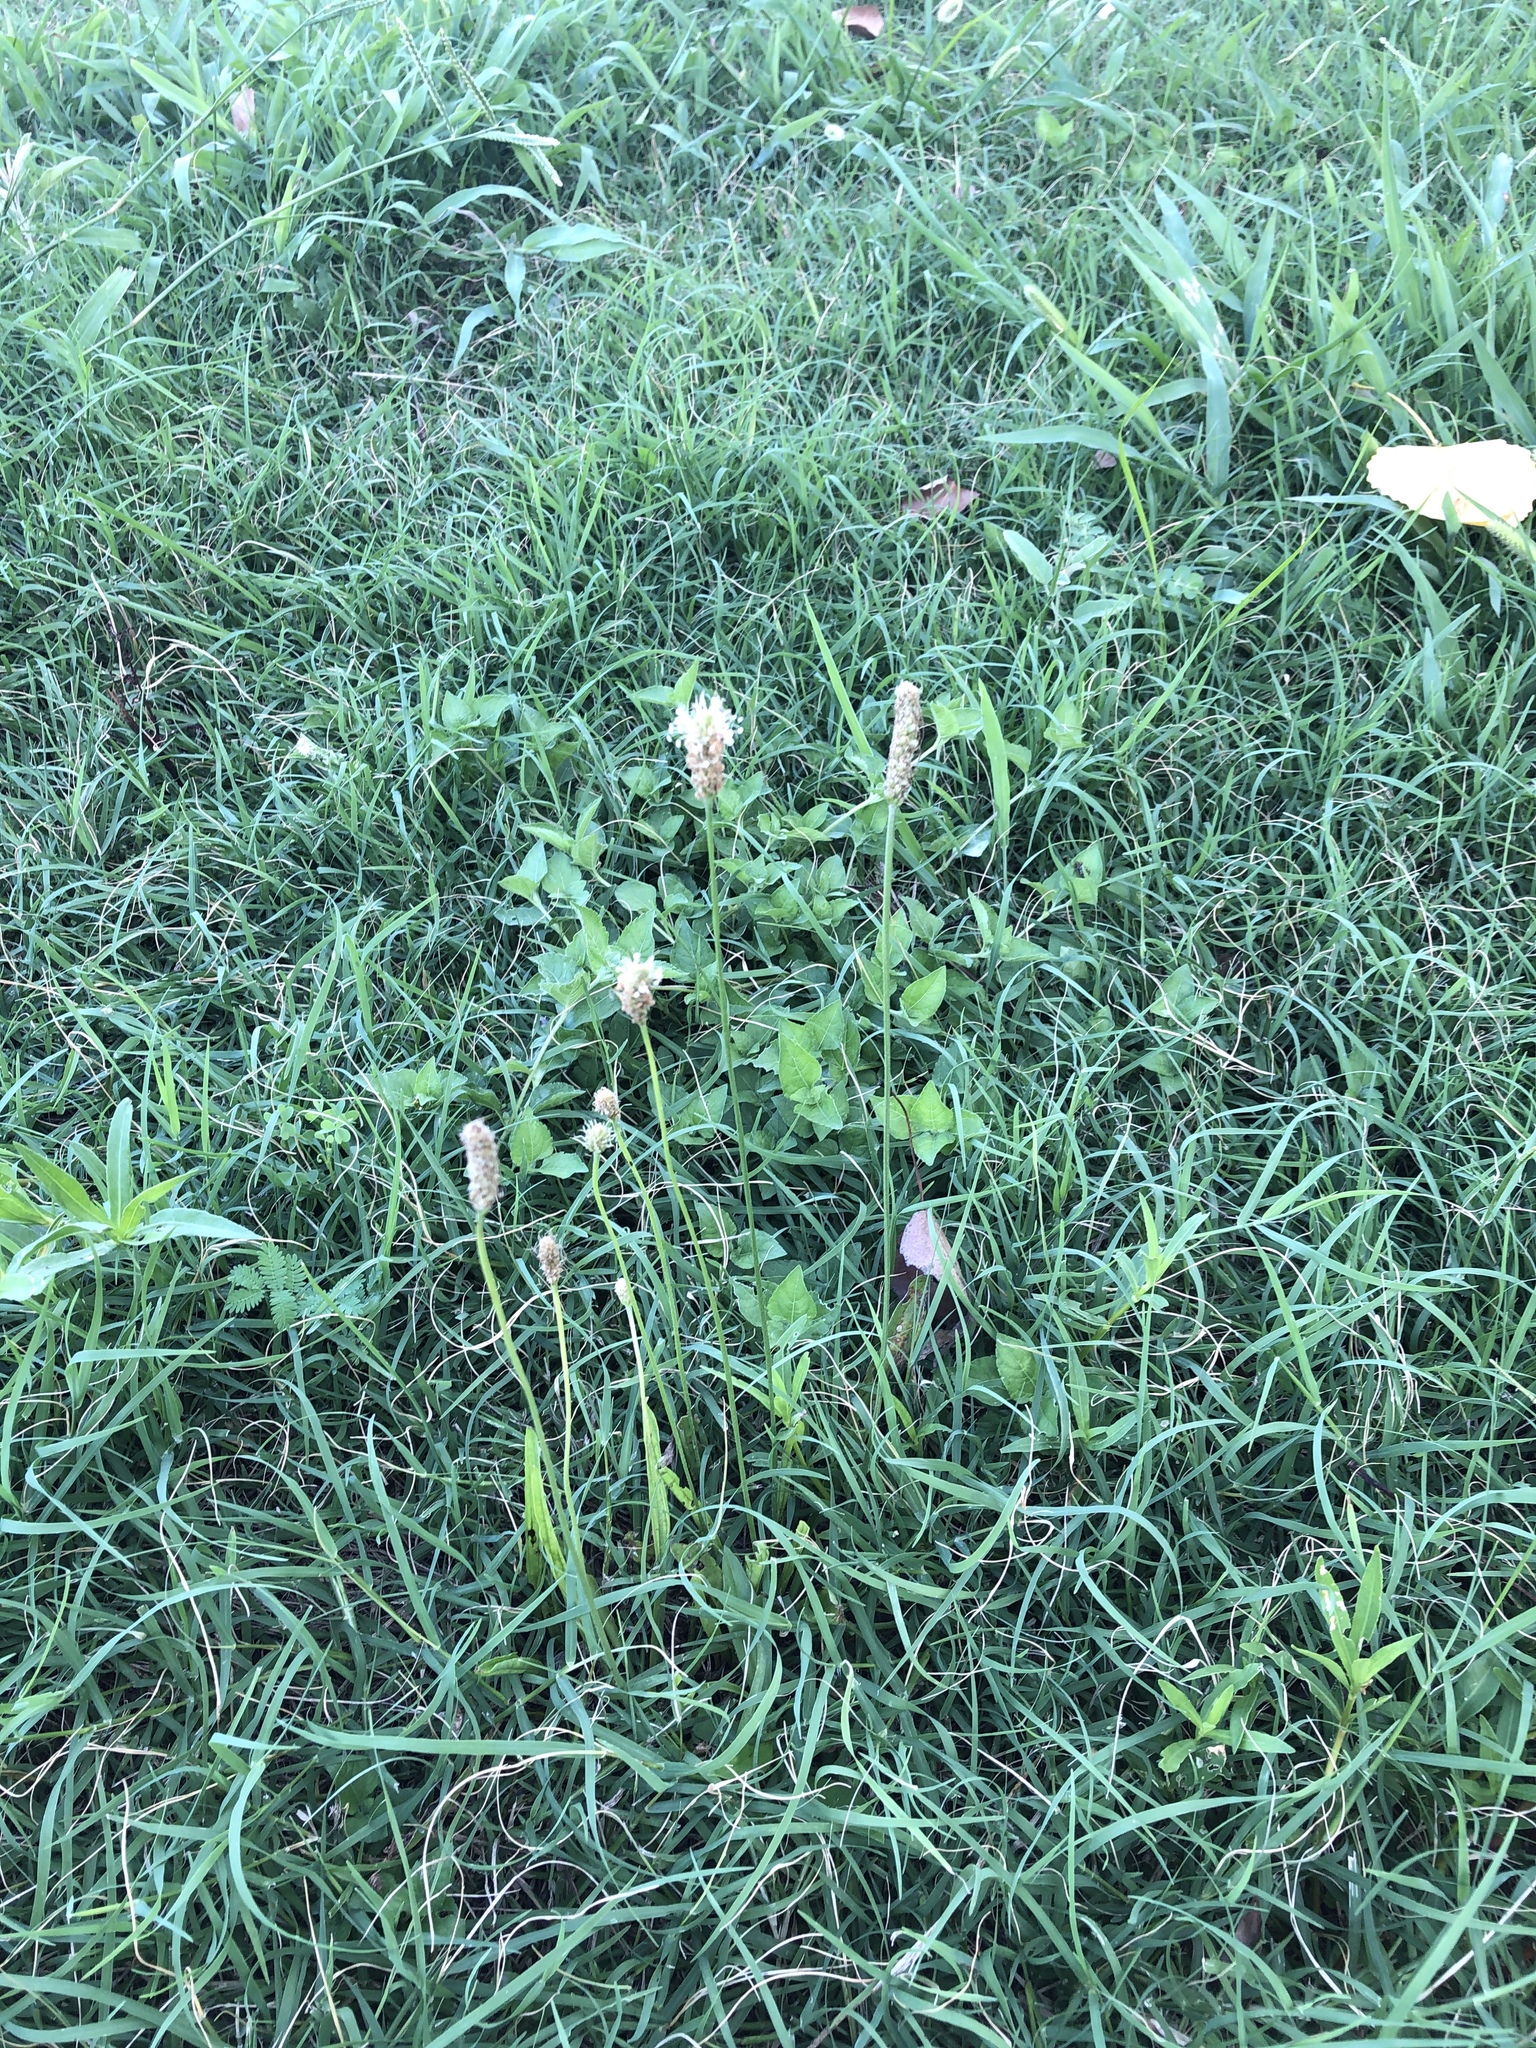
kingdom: Plantae
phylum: Tracheophyta
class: Magnoliopsida
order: Lamiales
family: Plantaginaceae
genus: Plantago
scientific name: Plantago lanceolata
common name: Ribwort plantain
